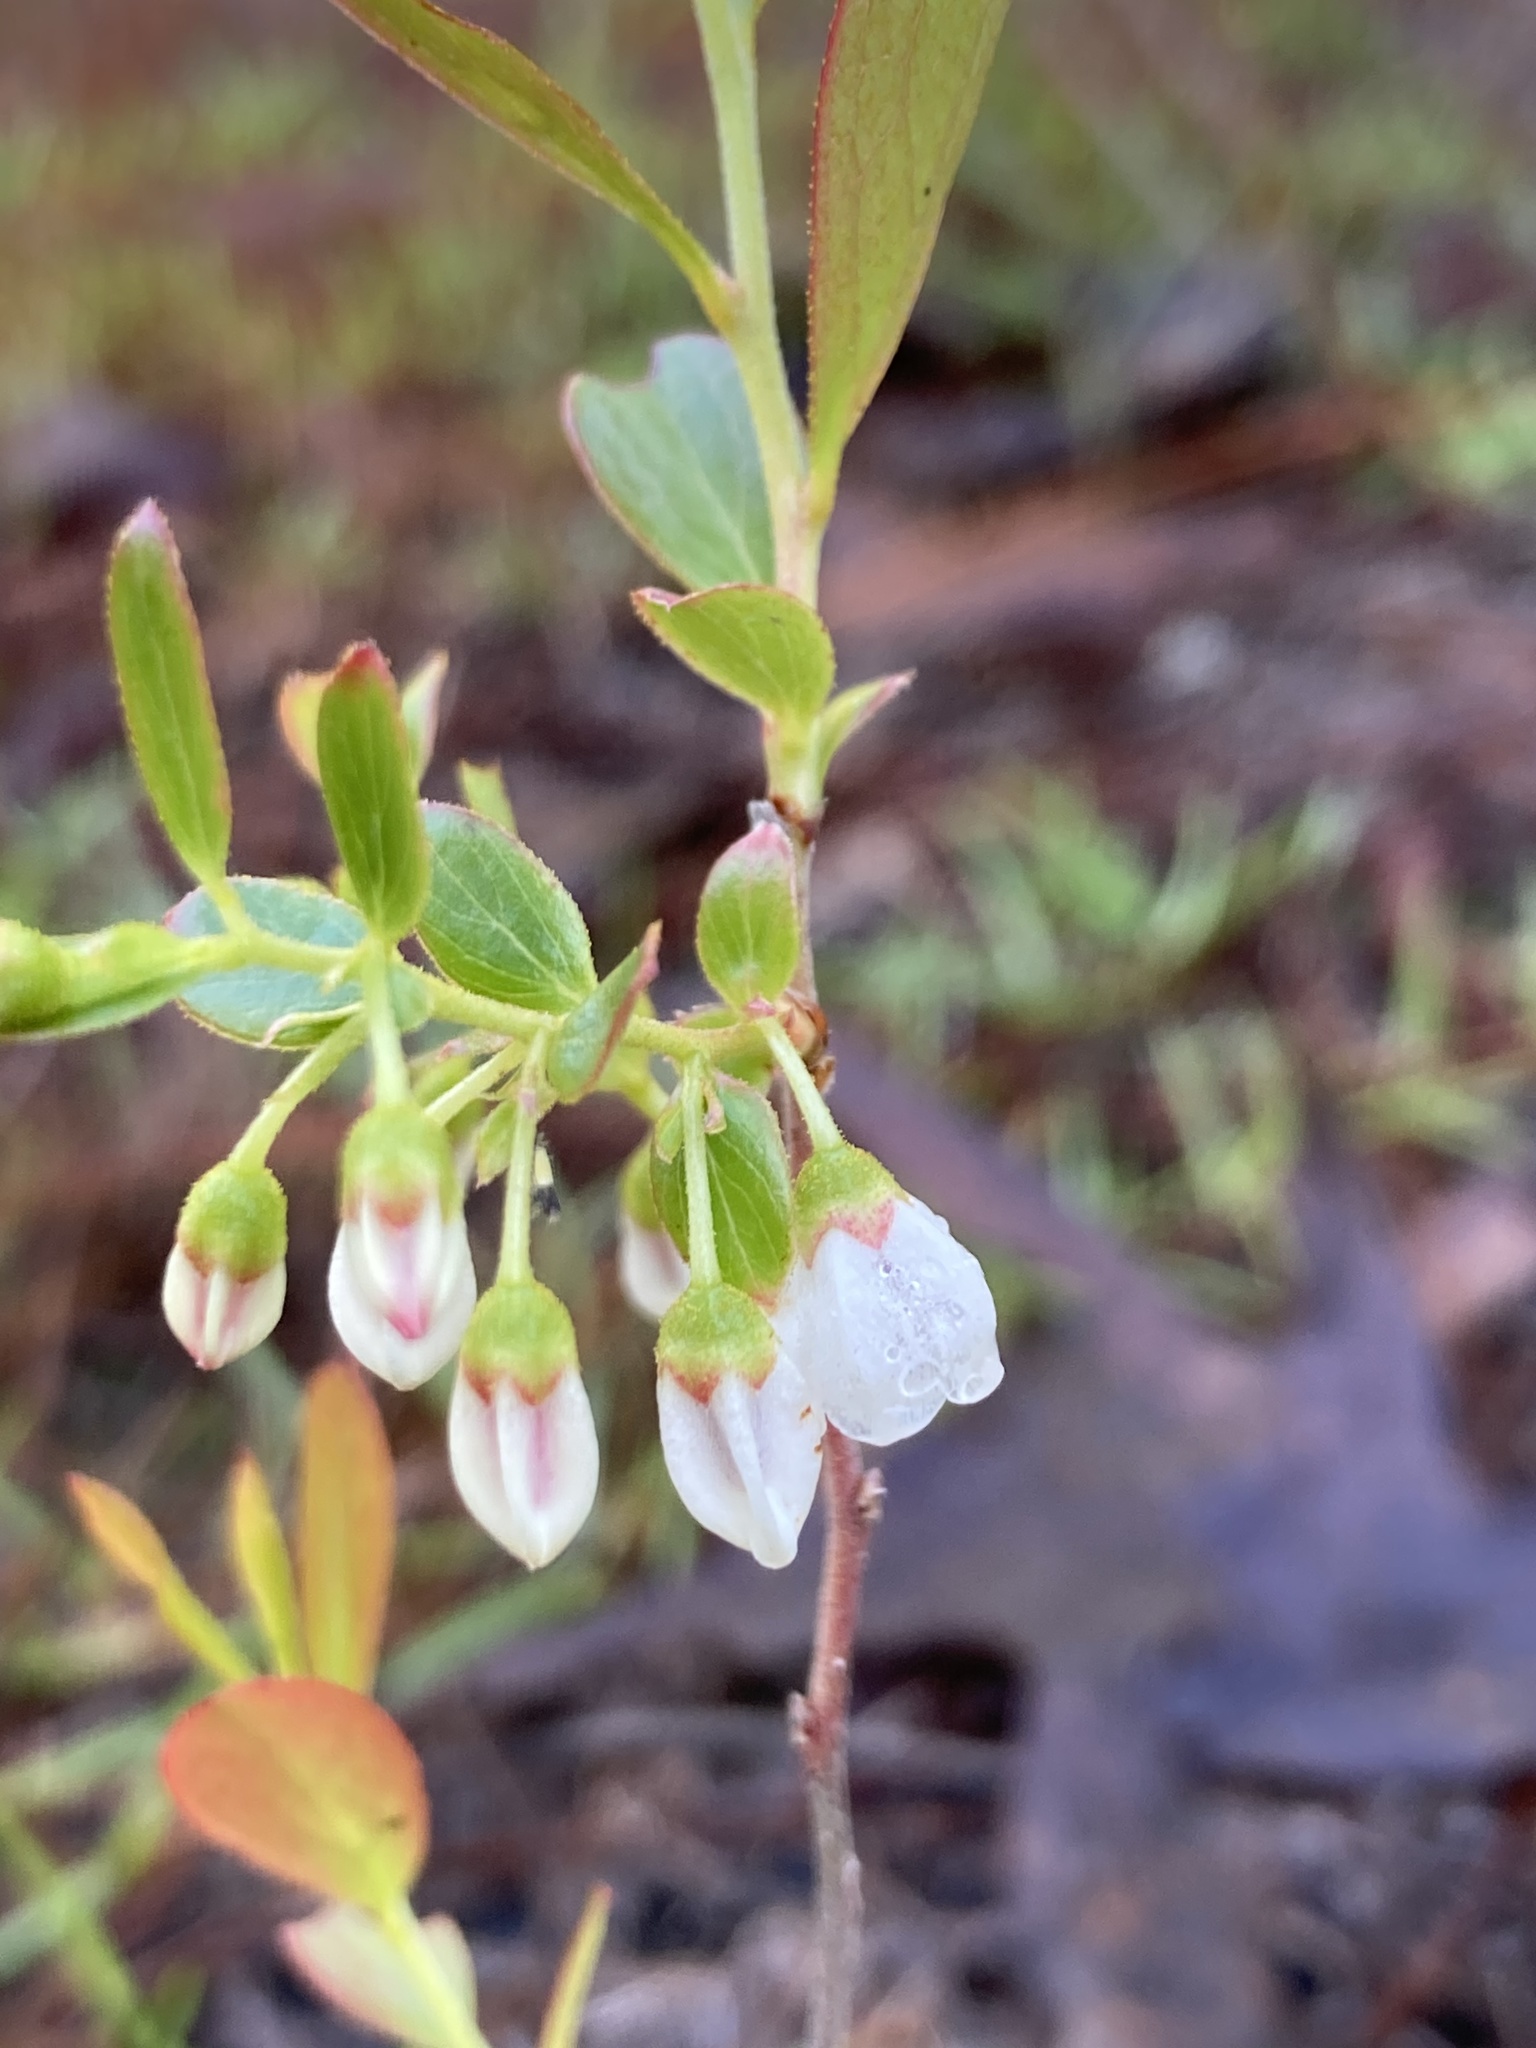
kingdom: Plantae
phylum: Tracheophyta
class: Magnoliopsida
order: Ericales
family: Ericaceae
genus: Gaylussacia
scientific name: Gaylussacia dumosa
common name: Dwarf huckleberry
